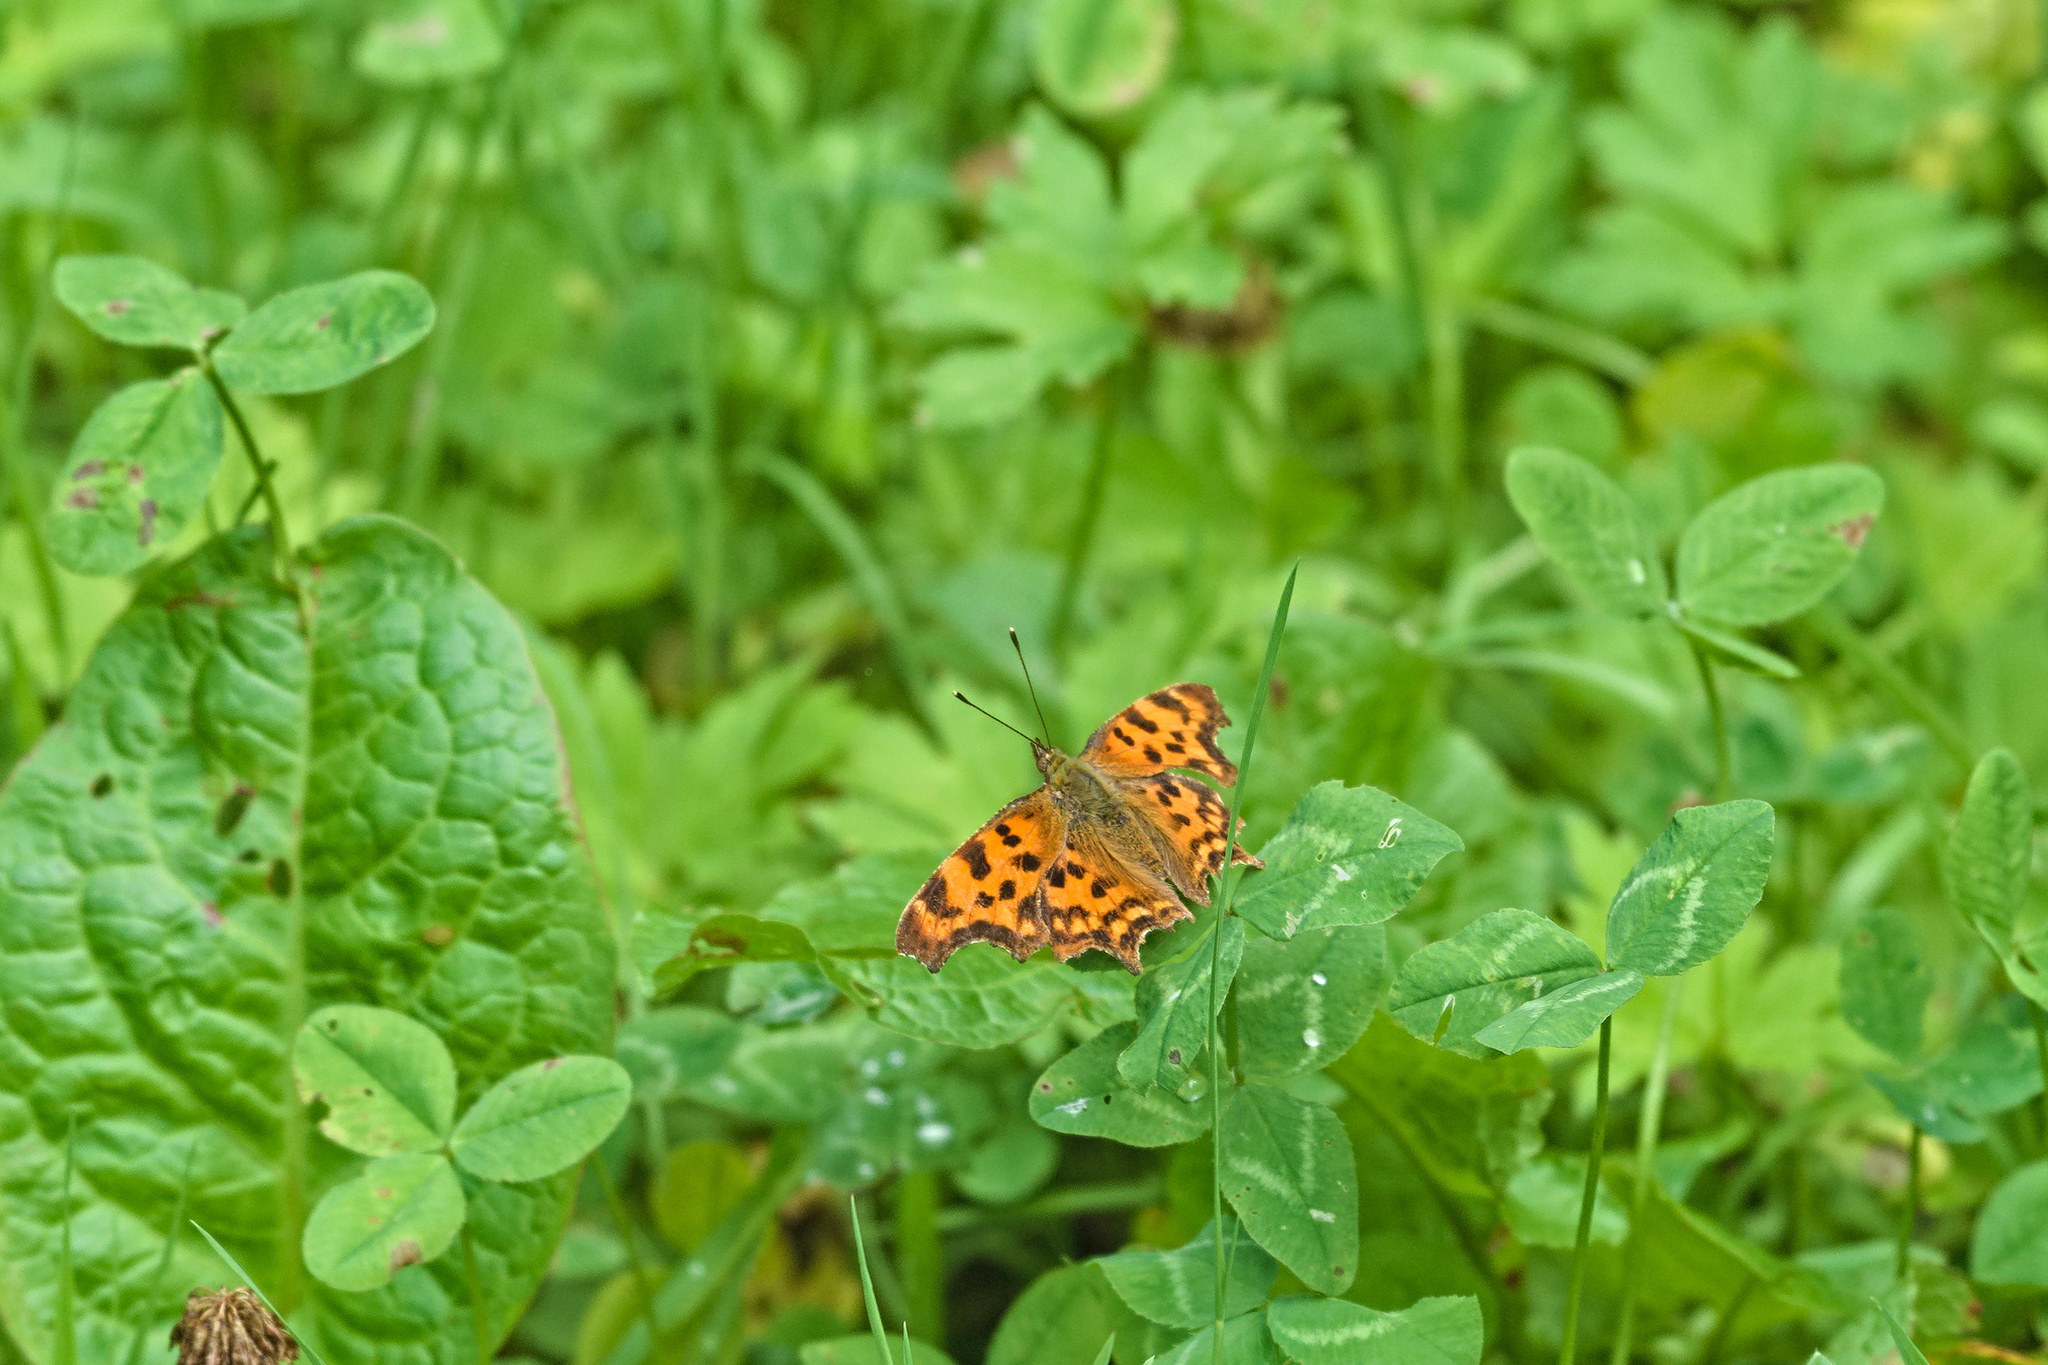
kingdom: Animalia
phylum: Arthropoda
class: Insecta
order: Lepidoptera
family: Nymphalidae
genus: Polygonia
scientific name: Polygonia c-album
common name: Comma
